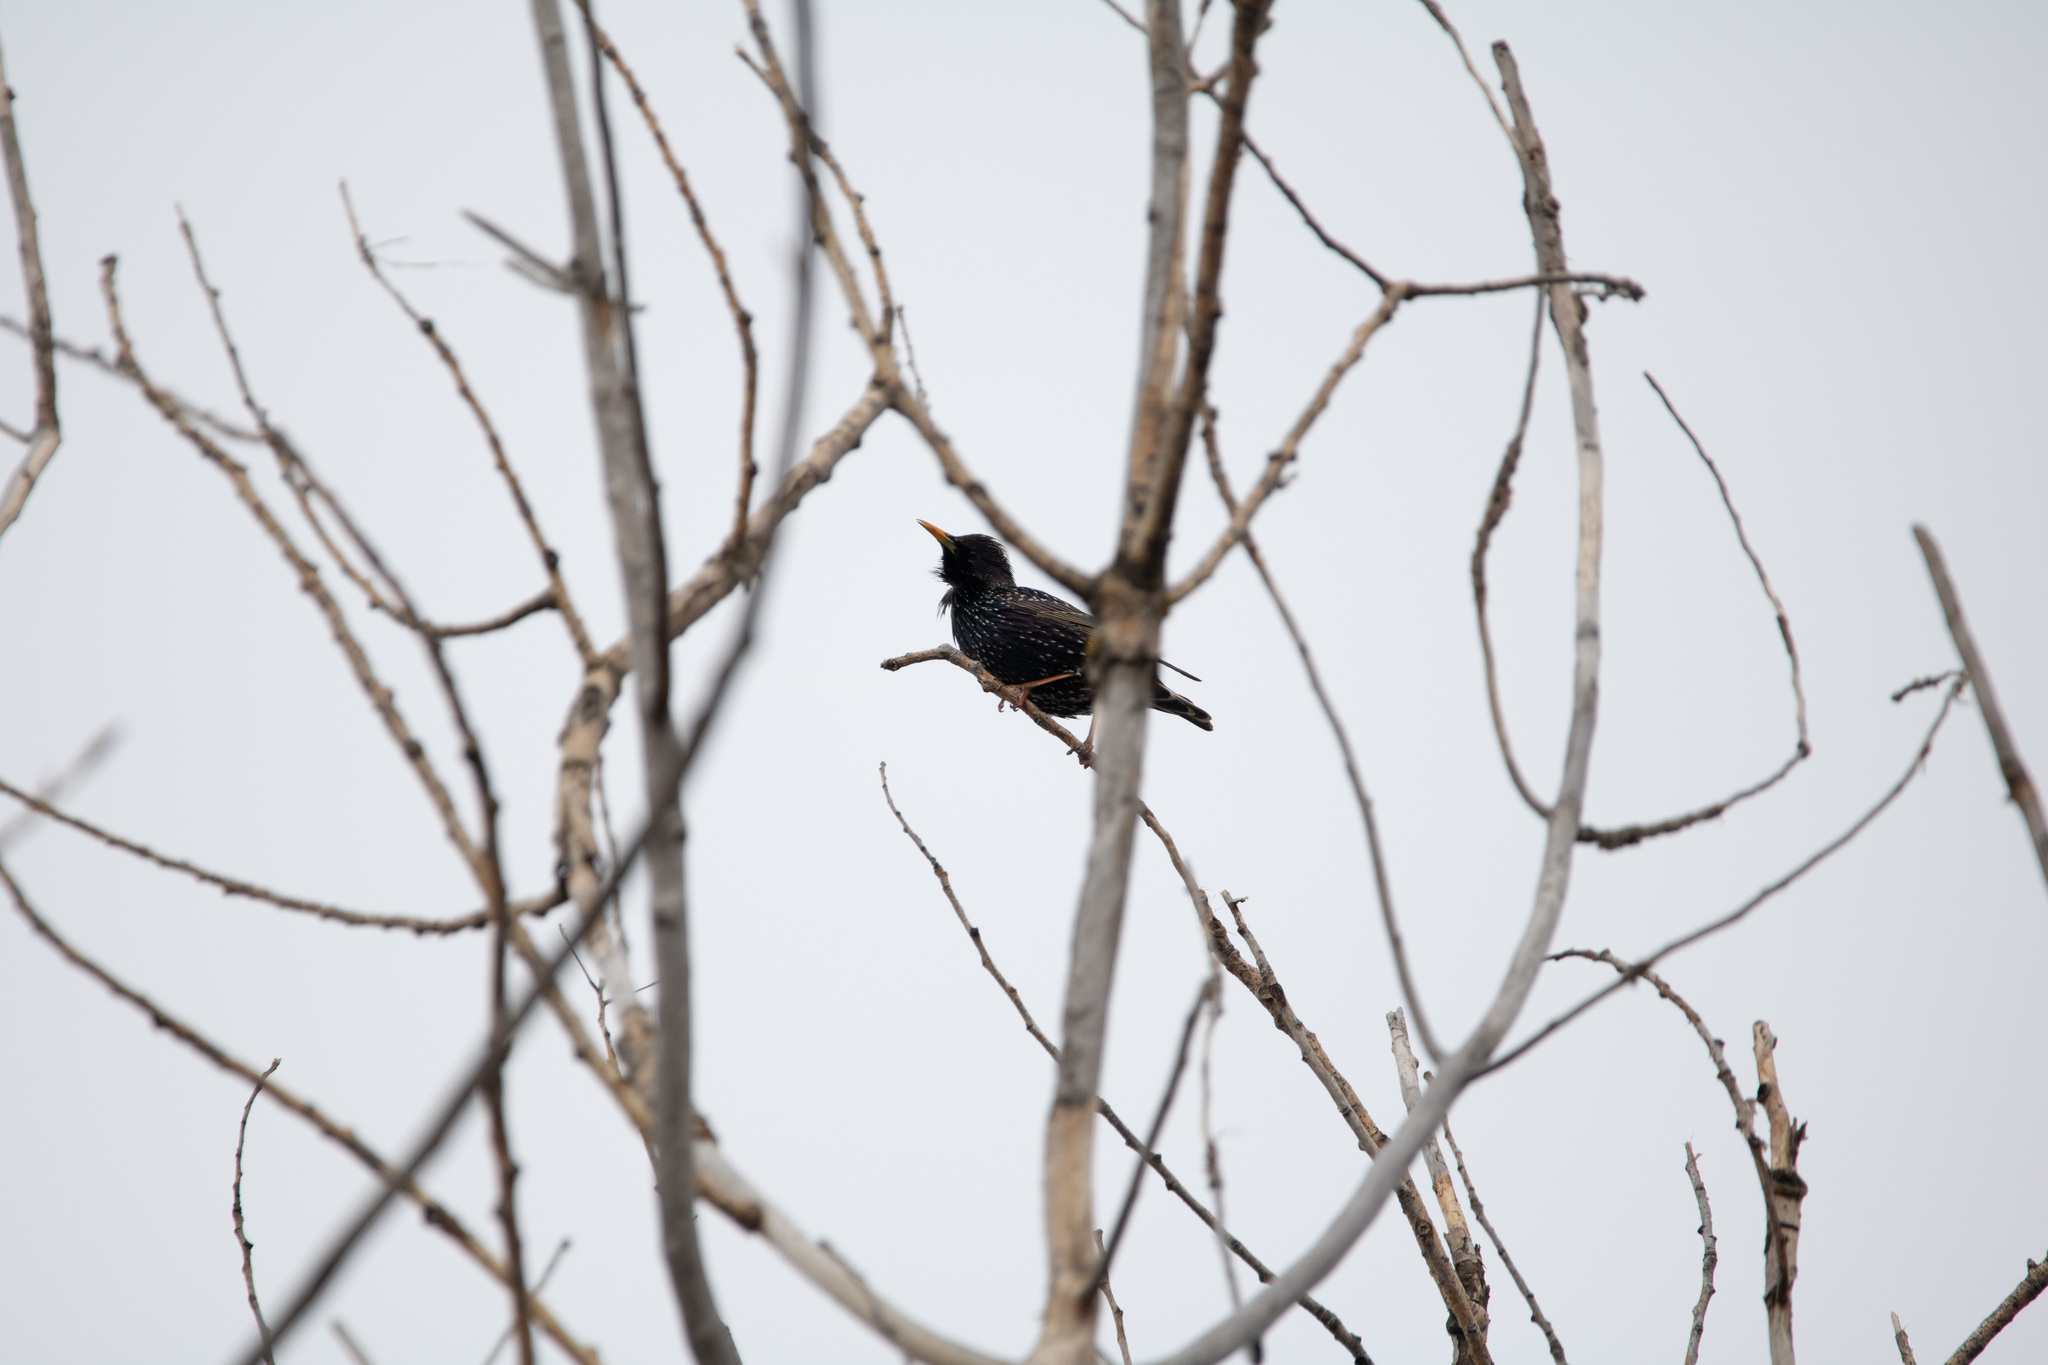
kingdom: Animalia
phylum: Chordata
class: Aves
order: Passeriformes
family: Sturnidae
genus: Sturnus
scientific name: Sturnus vulgaris
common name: Common starling
